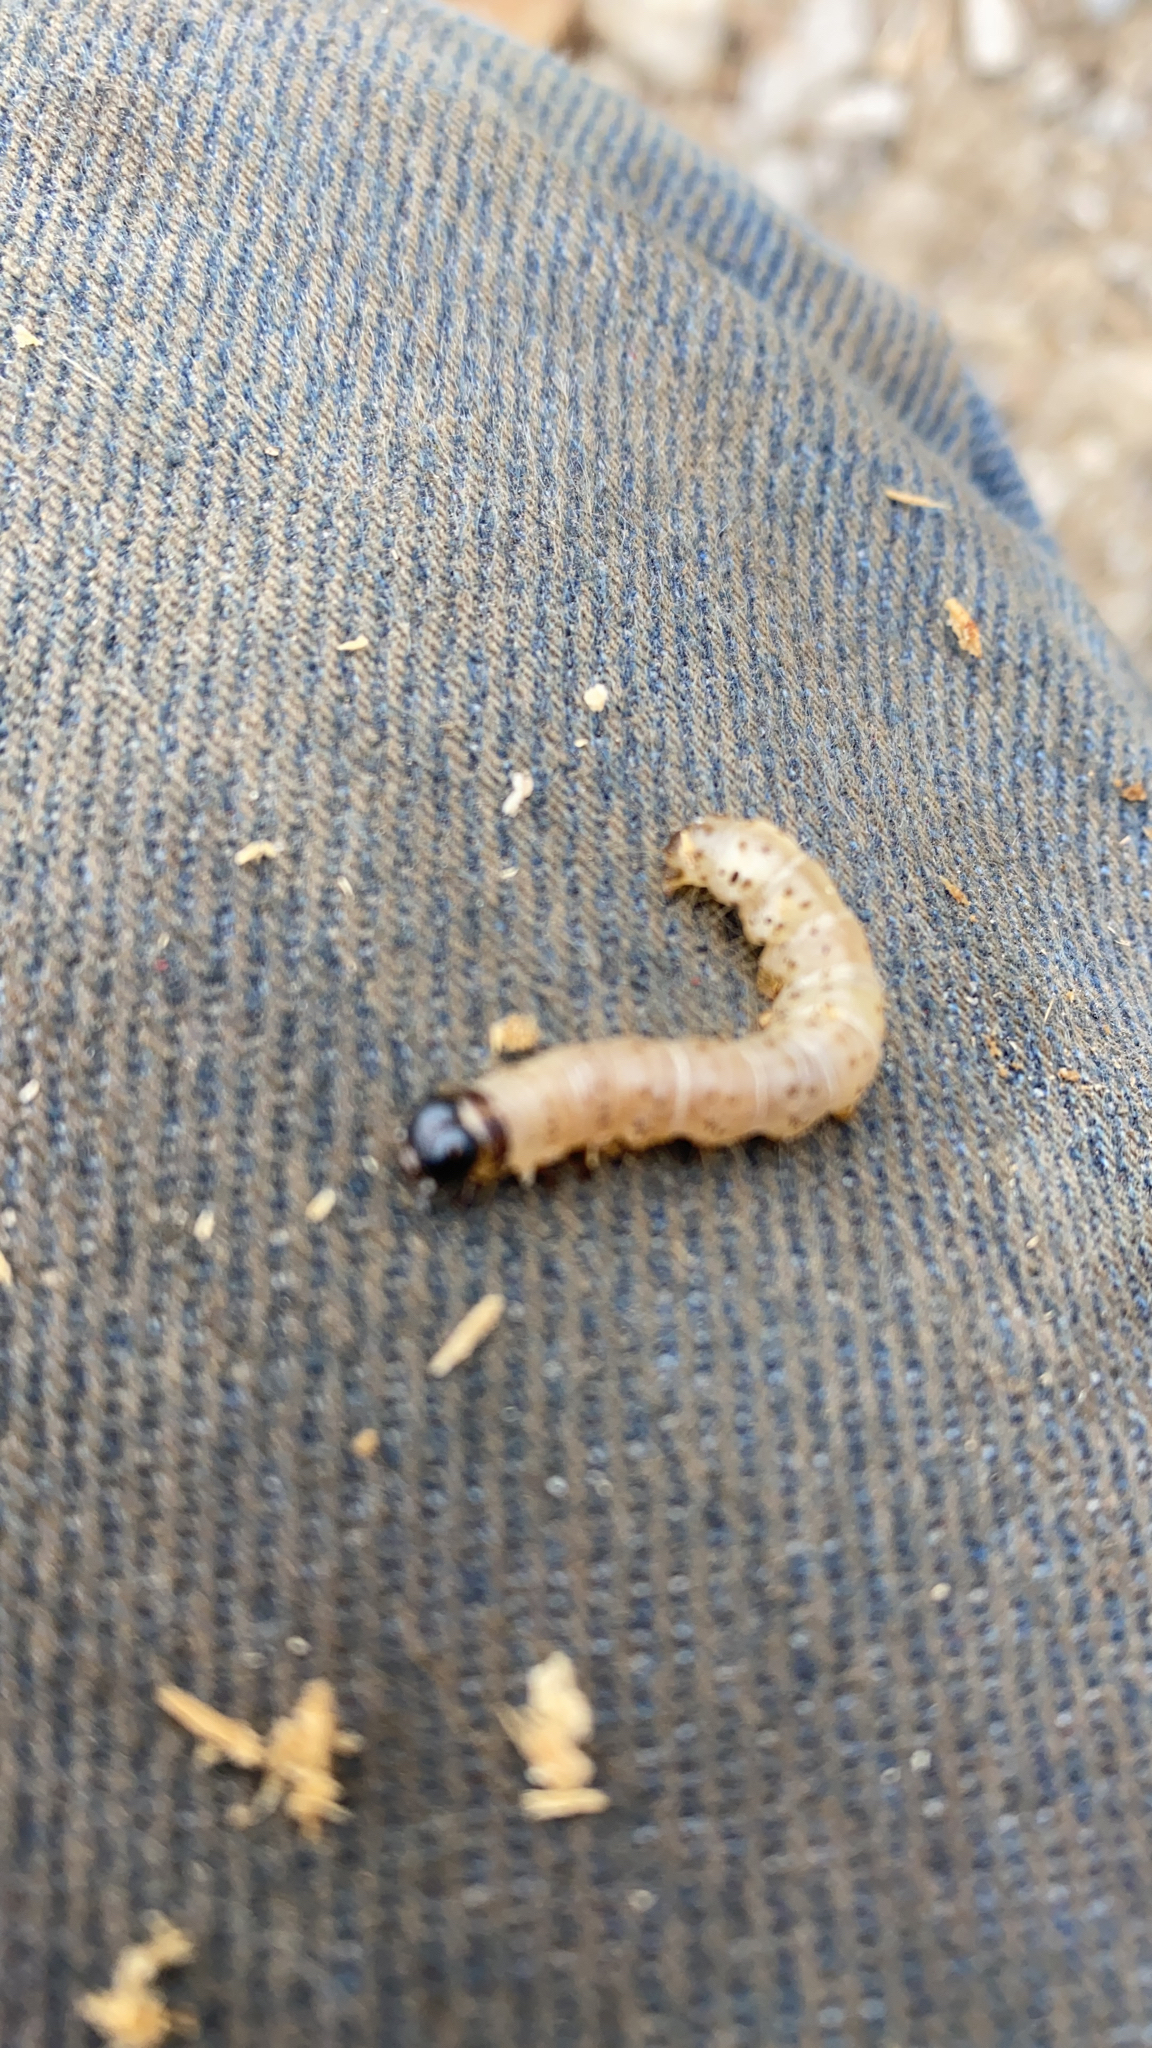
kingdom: Animalia
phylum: Arthropoda
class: Insecta
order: Lepidoptera
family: Erebidae
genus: Scolecocampa
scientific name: Scolecocampa liburna
